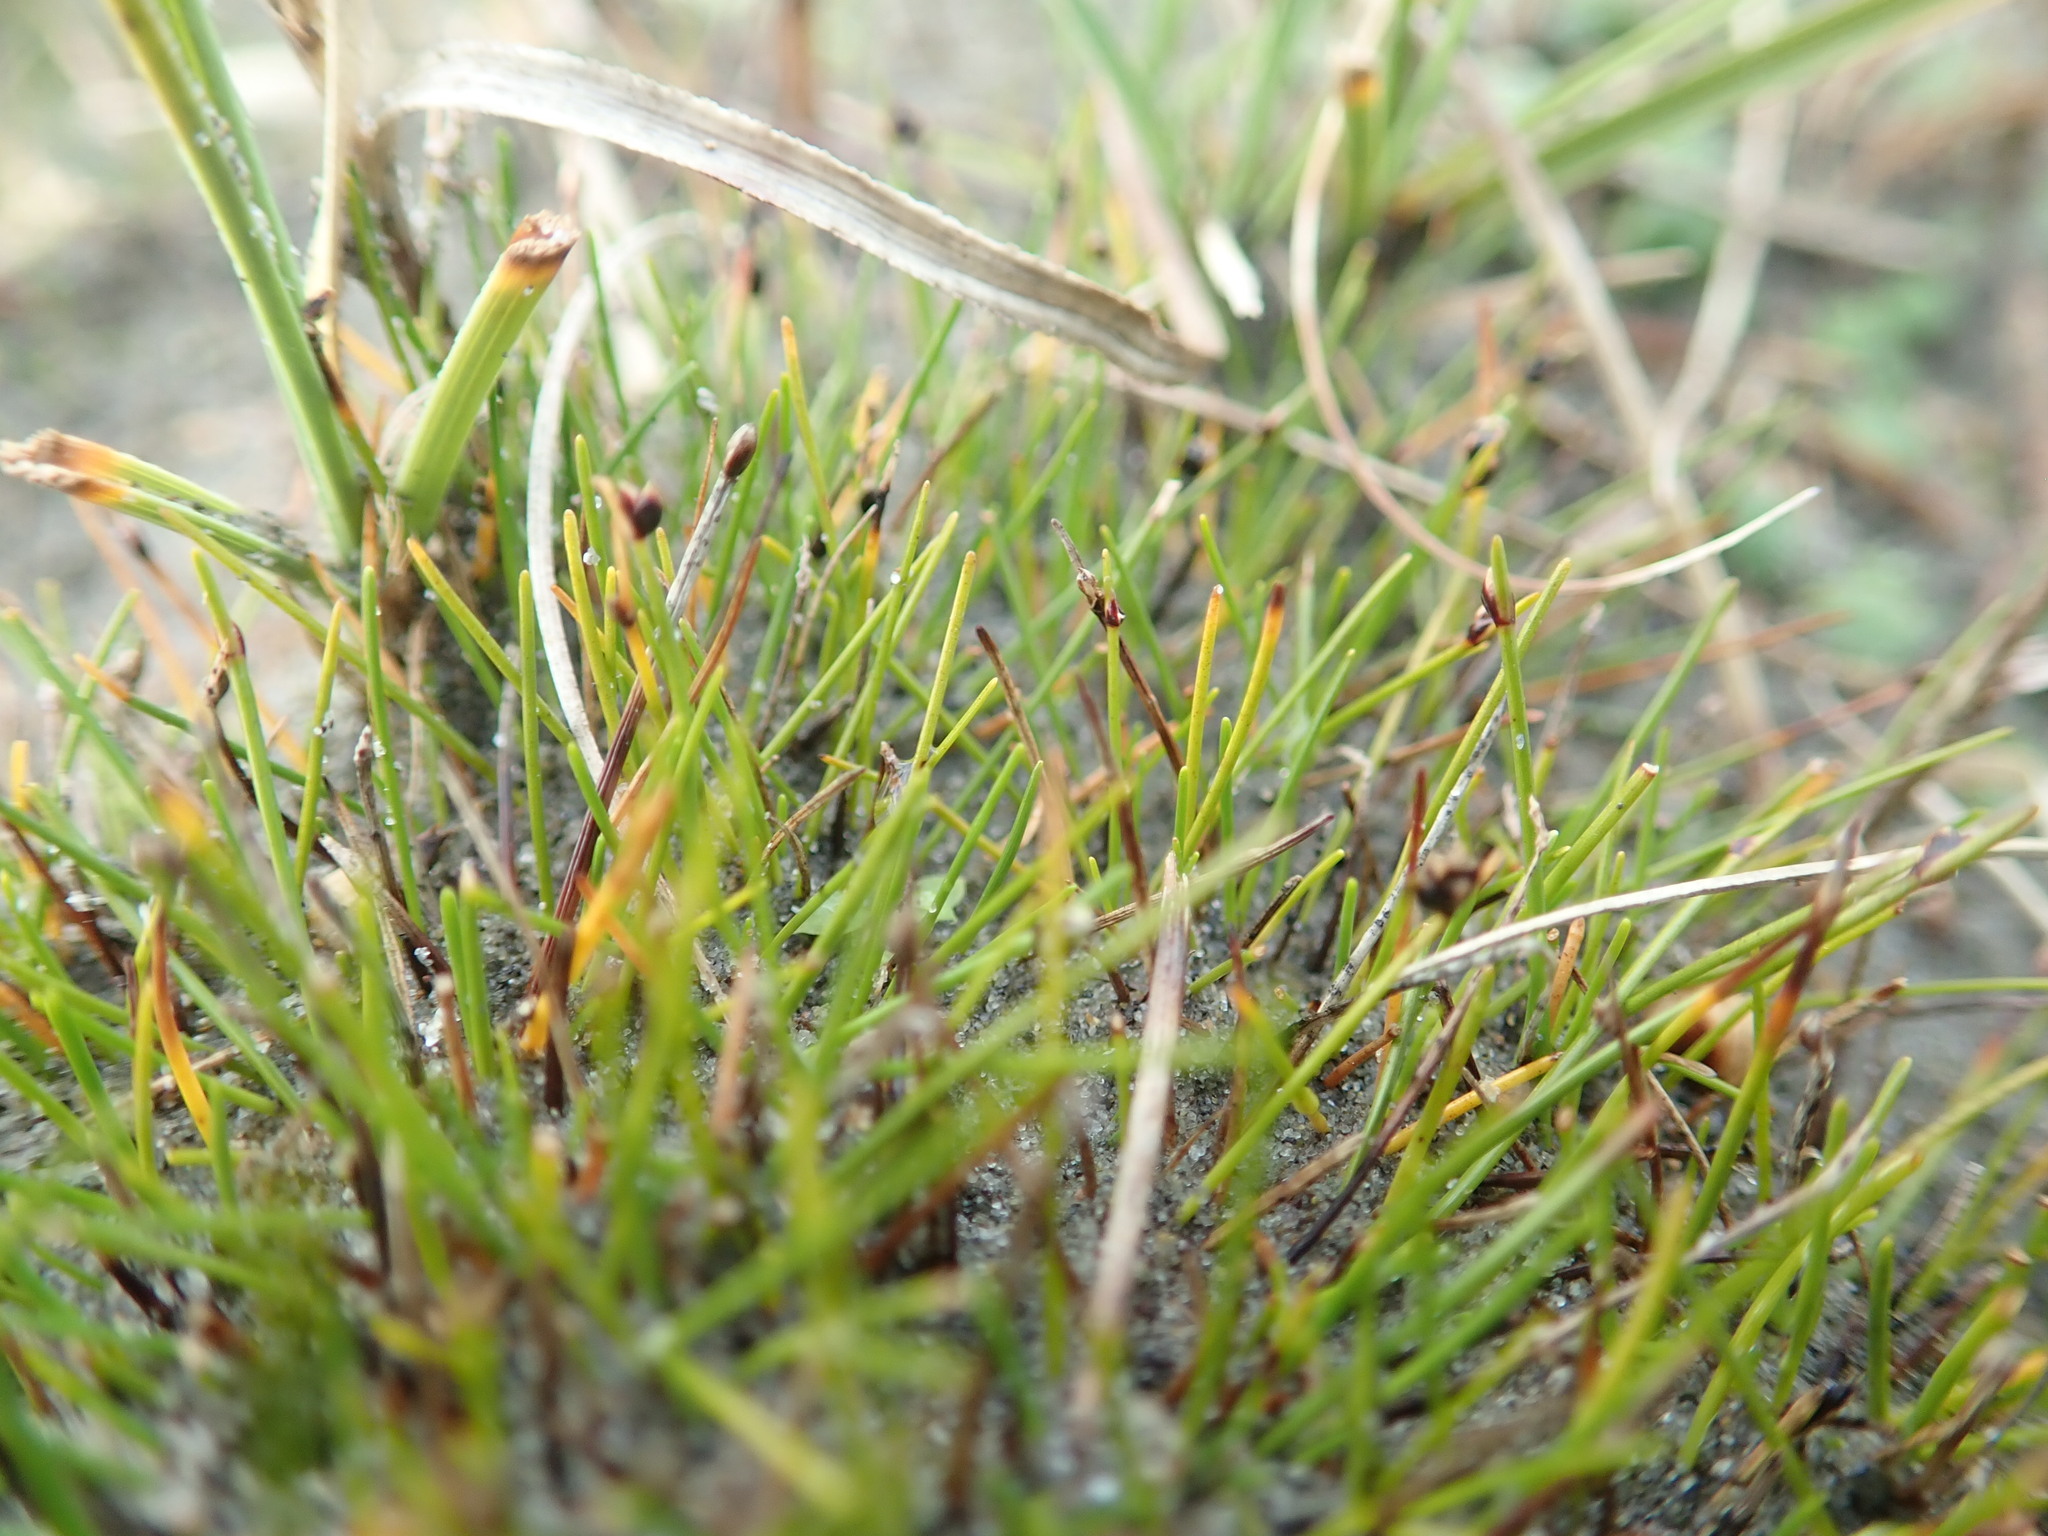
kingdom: Plantae
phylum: Tracheophyta
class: Liliopsida
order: Poales
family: Cyperaceae
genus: Isolepis
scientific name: Isolepis cernua
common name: Slender club-rush
